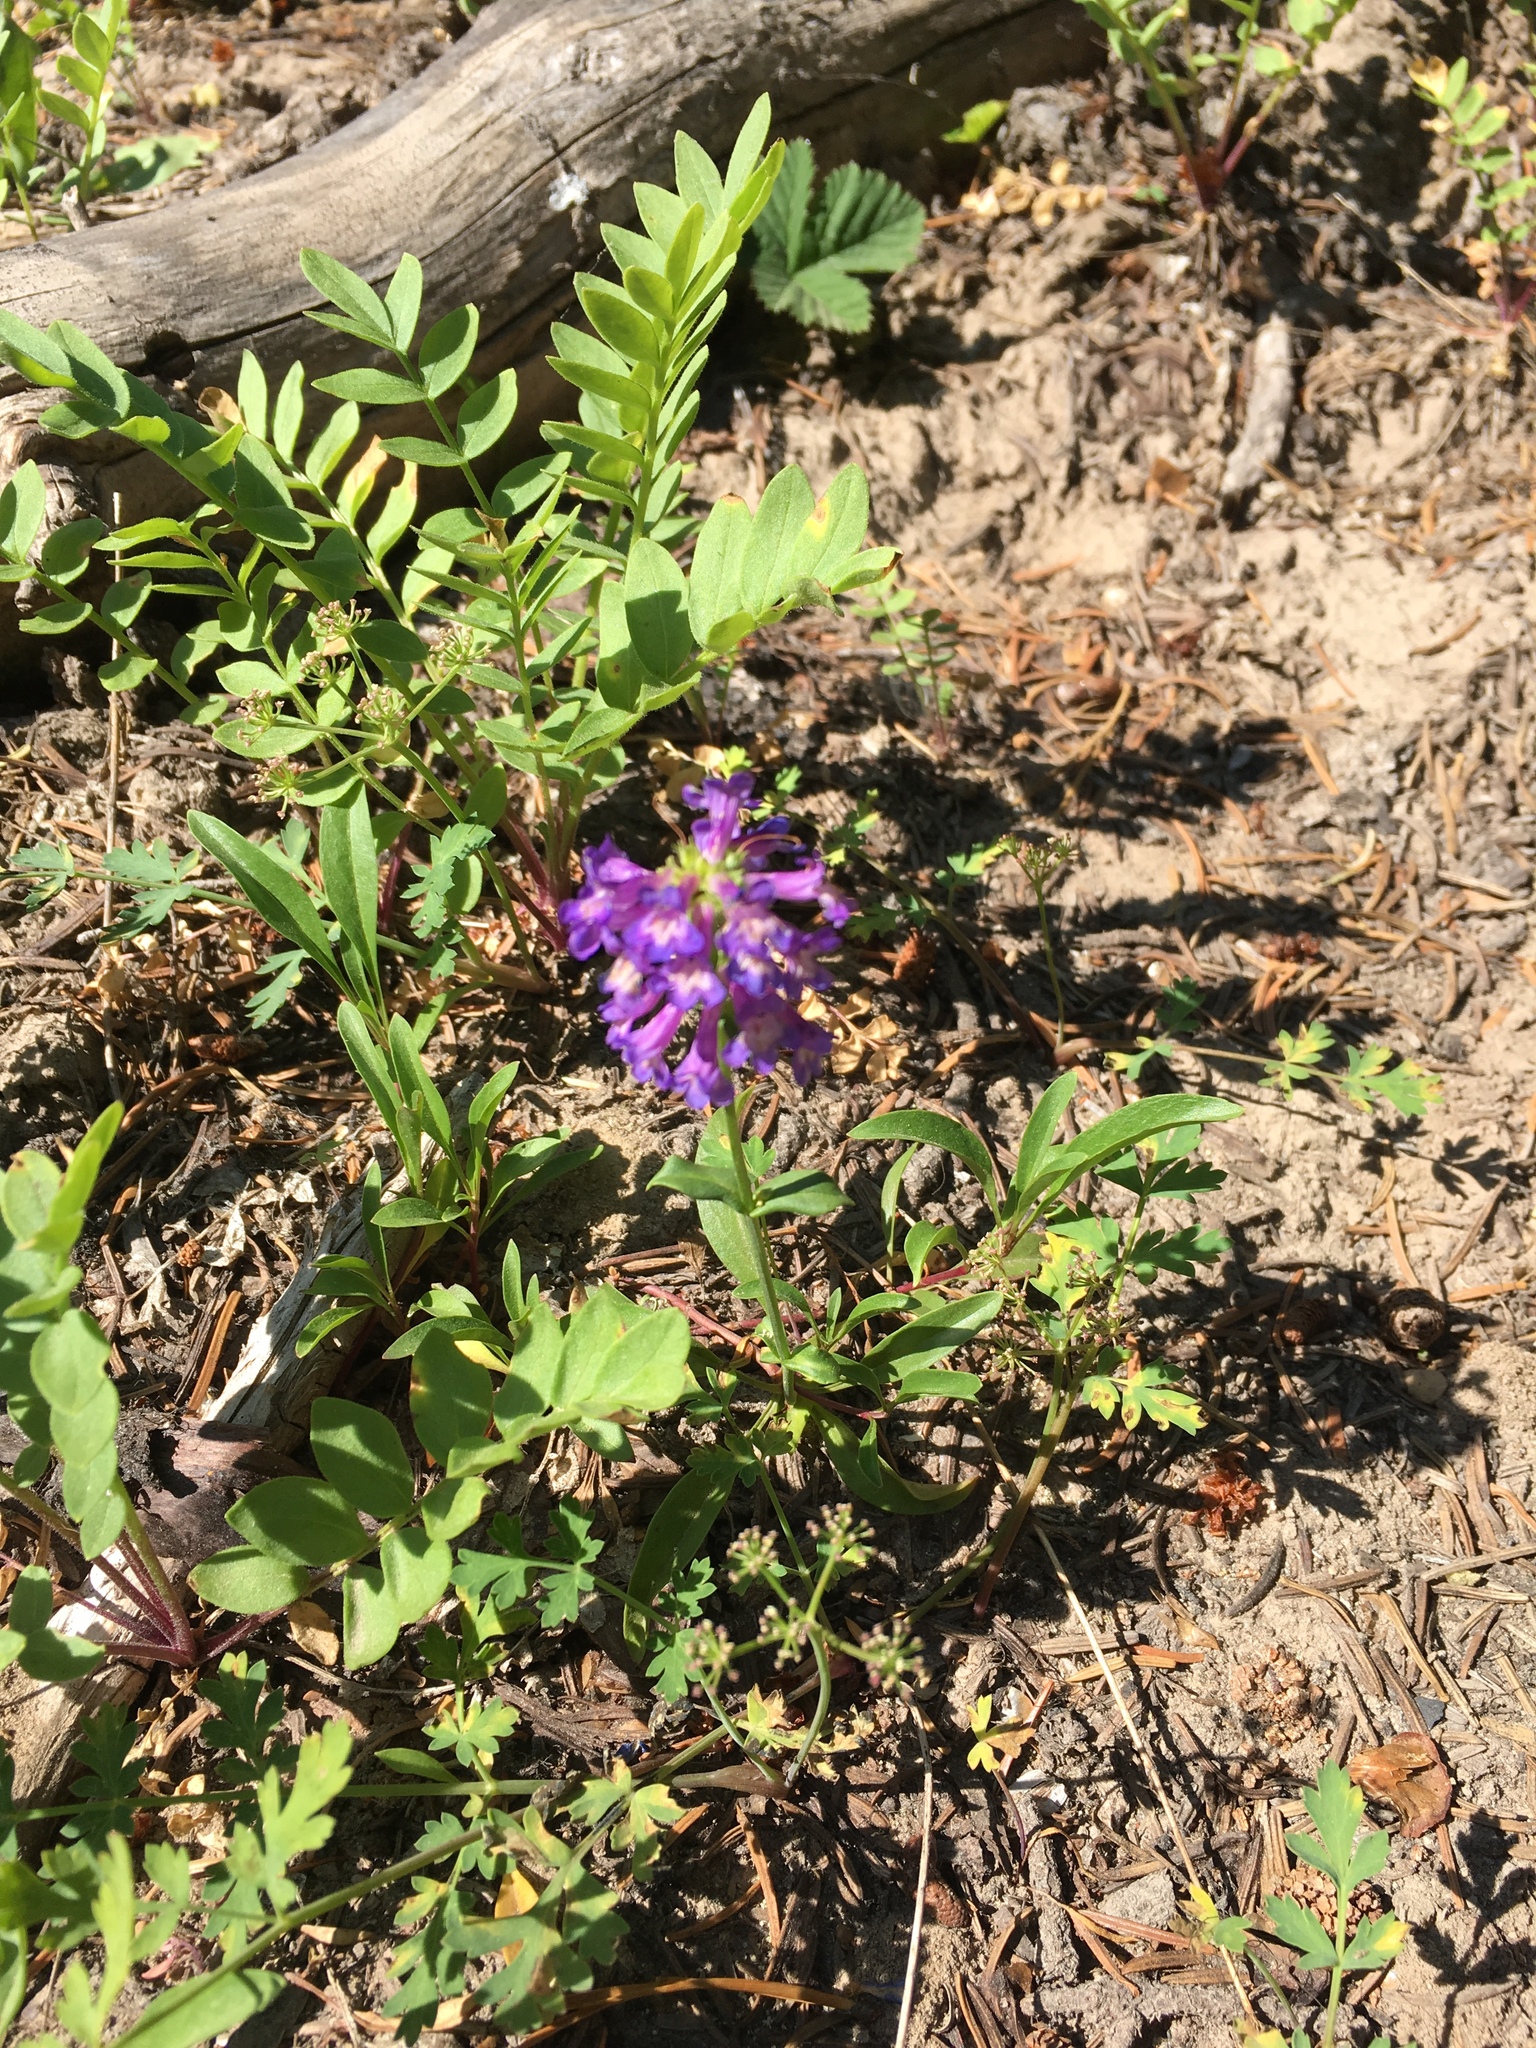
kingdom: Plantae
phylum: Tracheophyta
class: Magnoliopsida
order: Lamiales
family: Plantaginaceae
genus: Penstemon
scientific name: Penstemon procerus
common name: Small-flower penstemon
